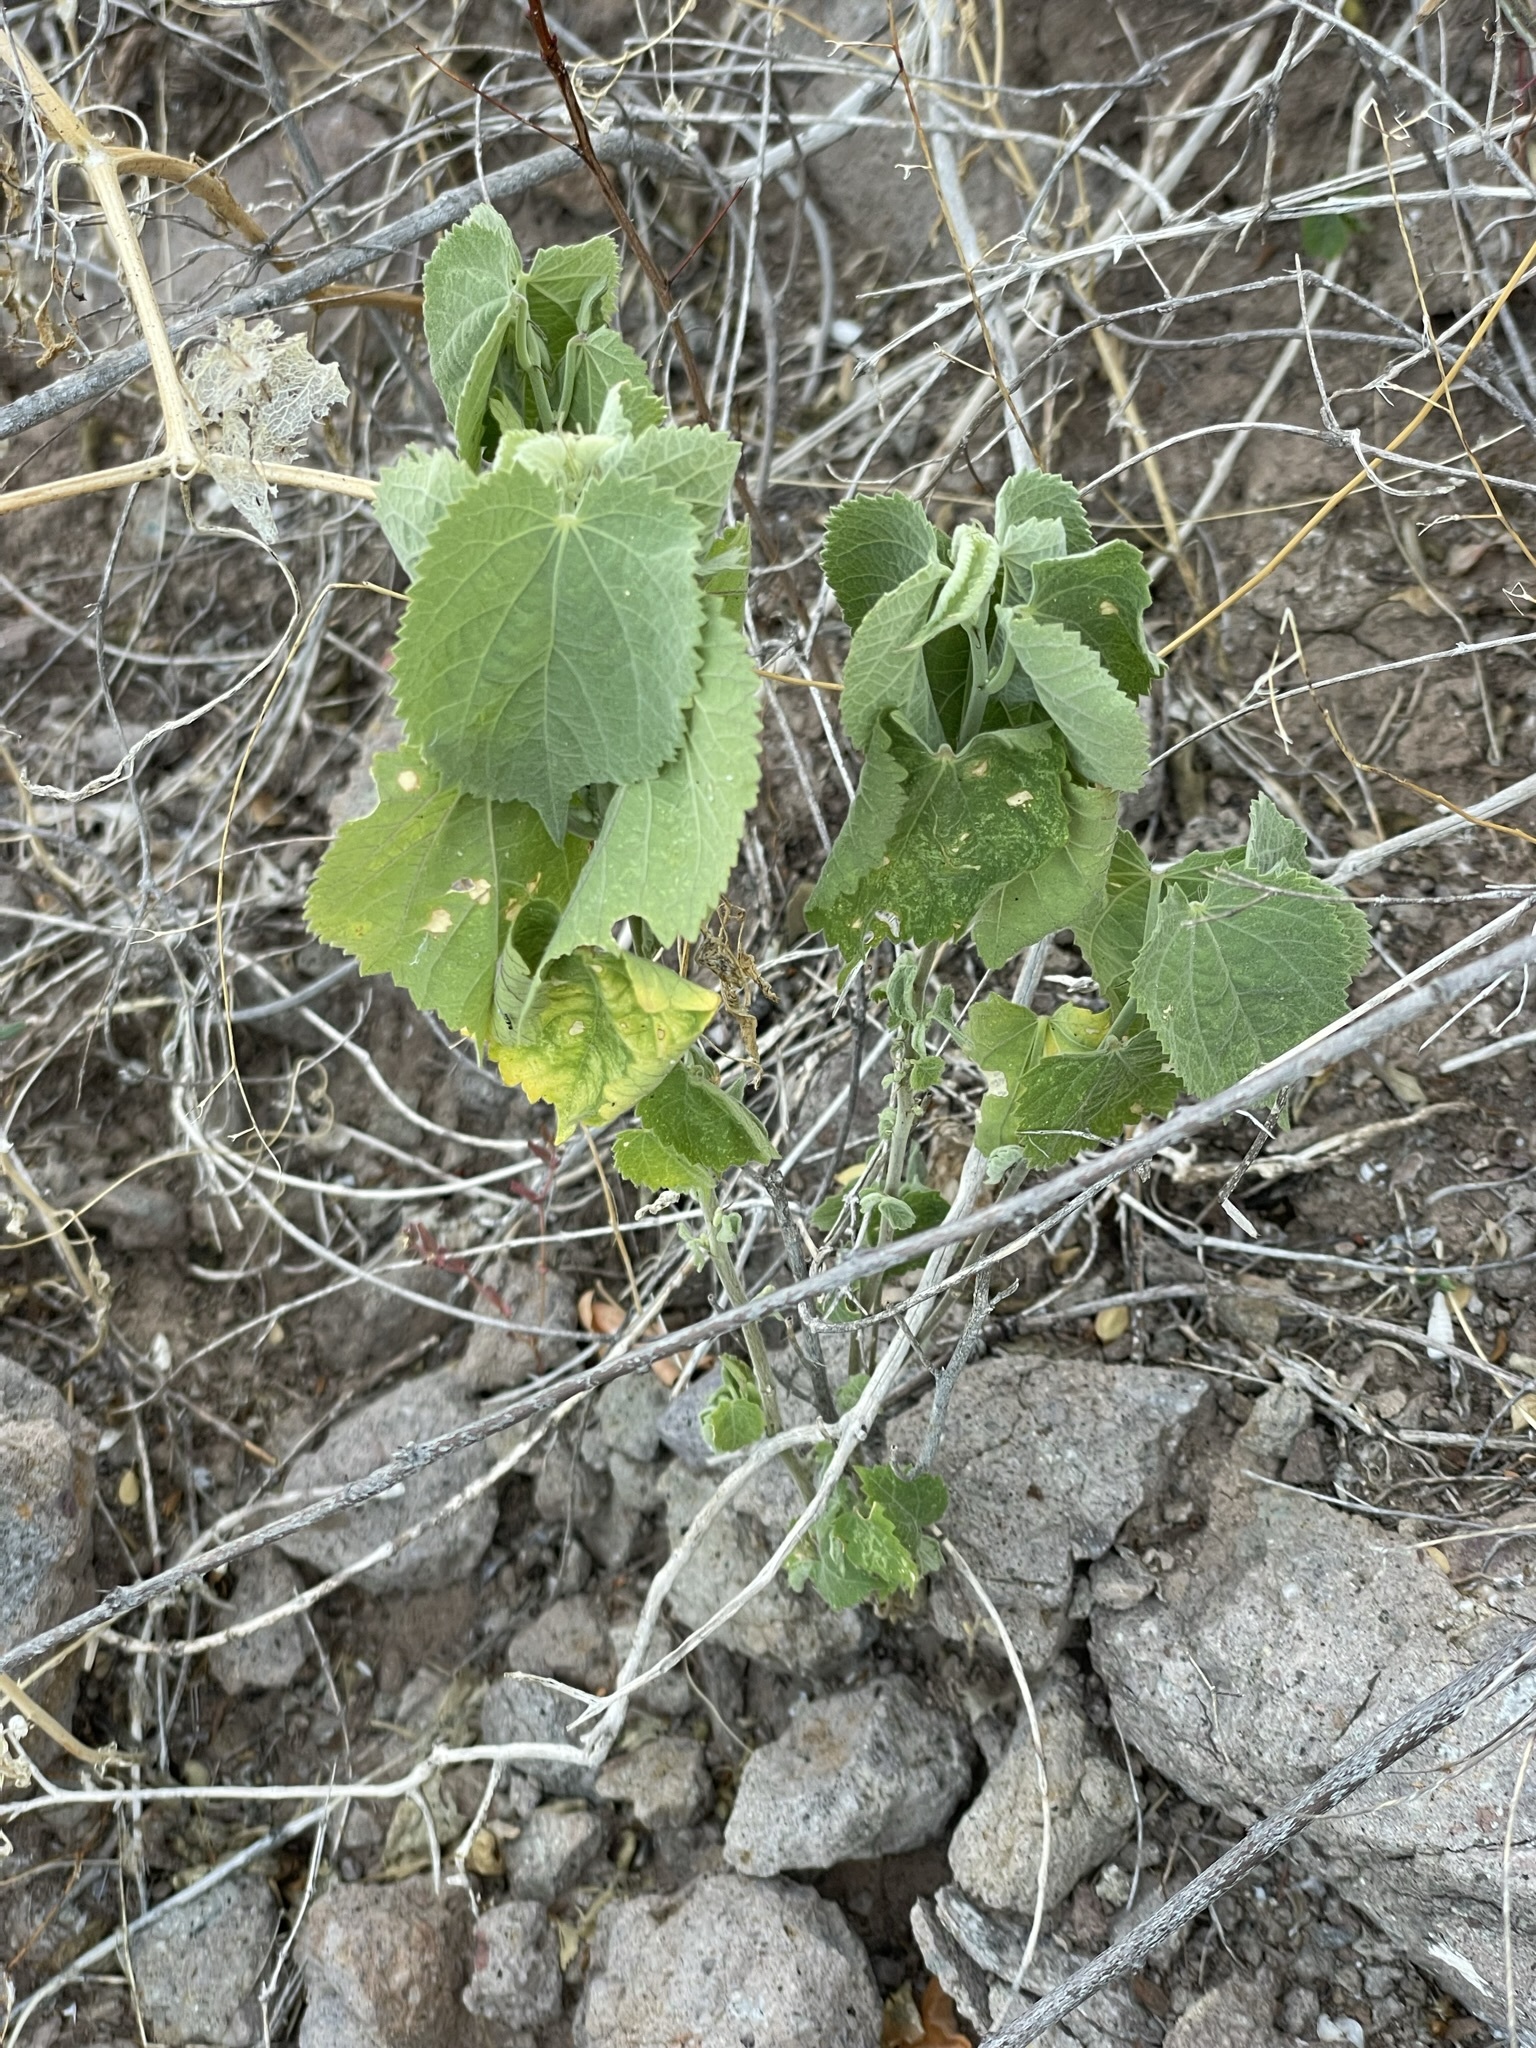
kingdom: Plantae
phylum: Tracheophyta
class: Magnoliopsida
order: Malvales
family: Malvaceae
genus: Herissantia
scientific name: Herissantia crispa
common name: Bladdermallow
